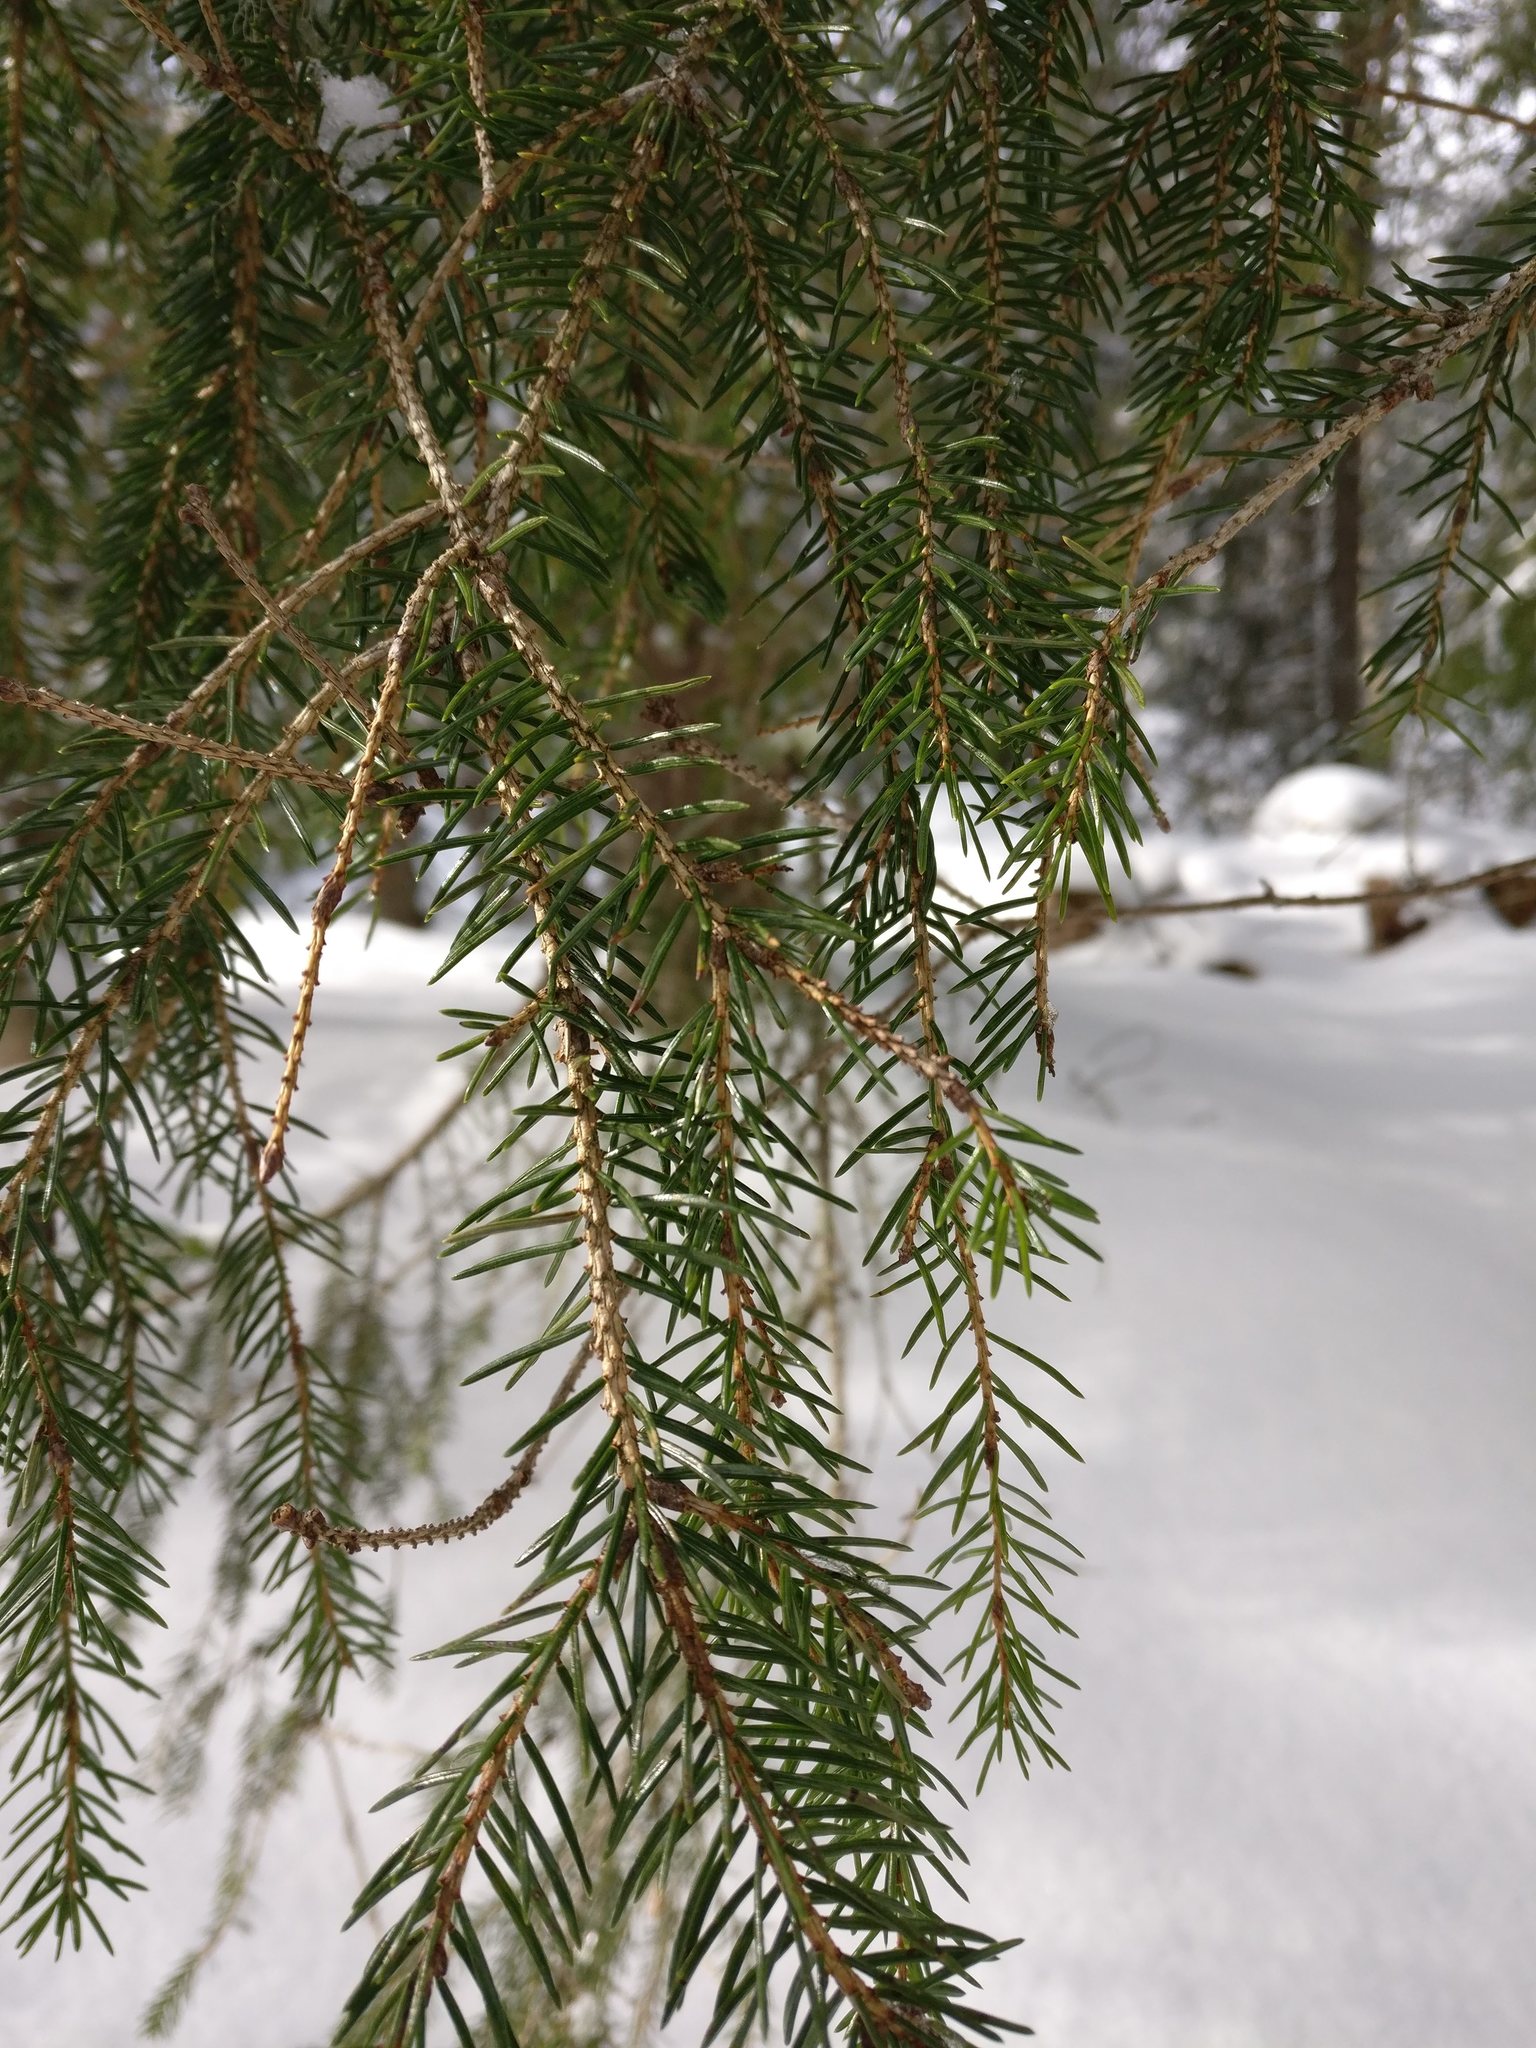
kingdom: Plantae
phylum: Tracheophyta
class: Pinopsida
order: Pinales
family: Pinaceae
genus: Picea
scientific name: Picea abies
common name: Norway spruce
